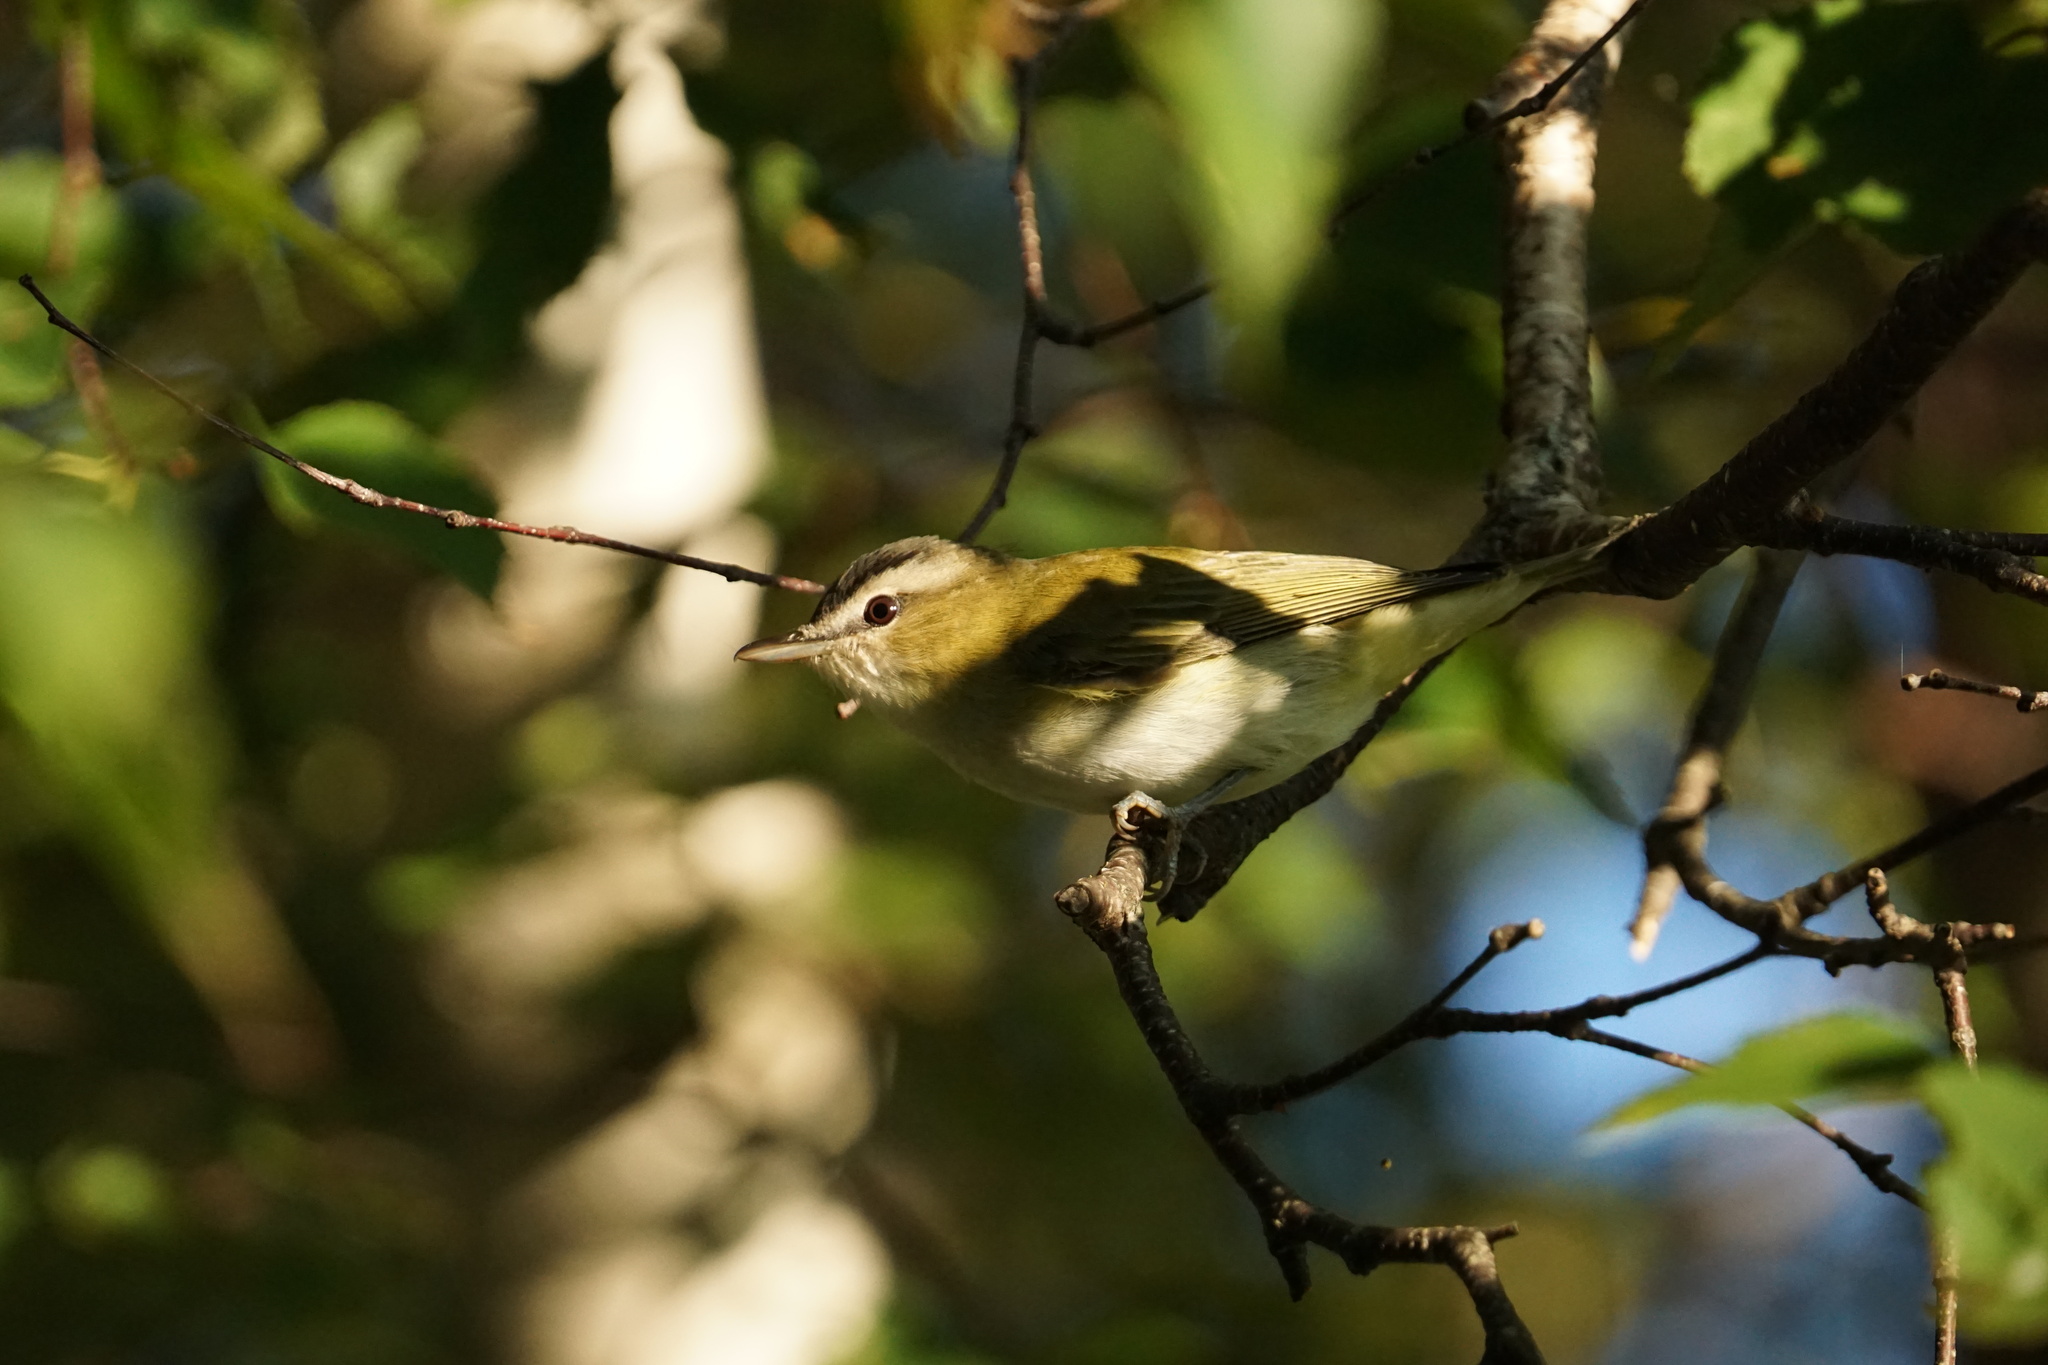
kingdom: Animalia
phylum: Chordata
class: Aves
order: Passeriformes
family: Vireonidae
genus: Vireo
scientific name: Vireo olivaceus
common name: Red-eyed vireo
